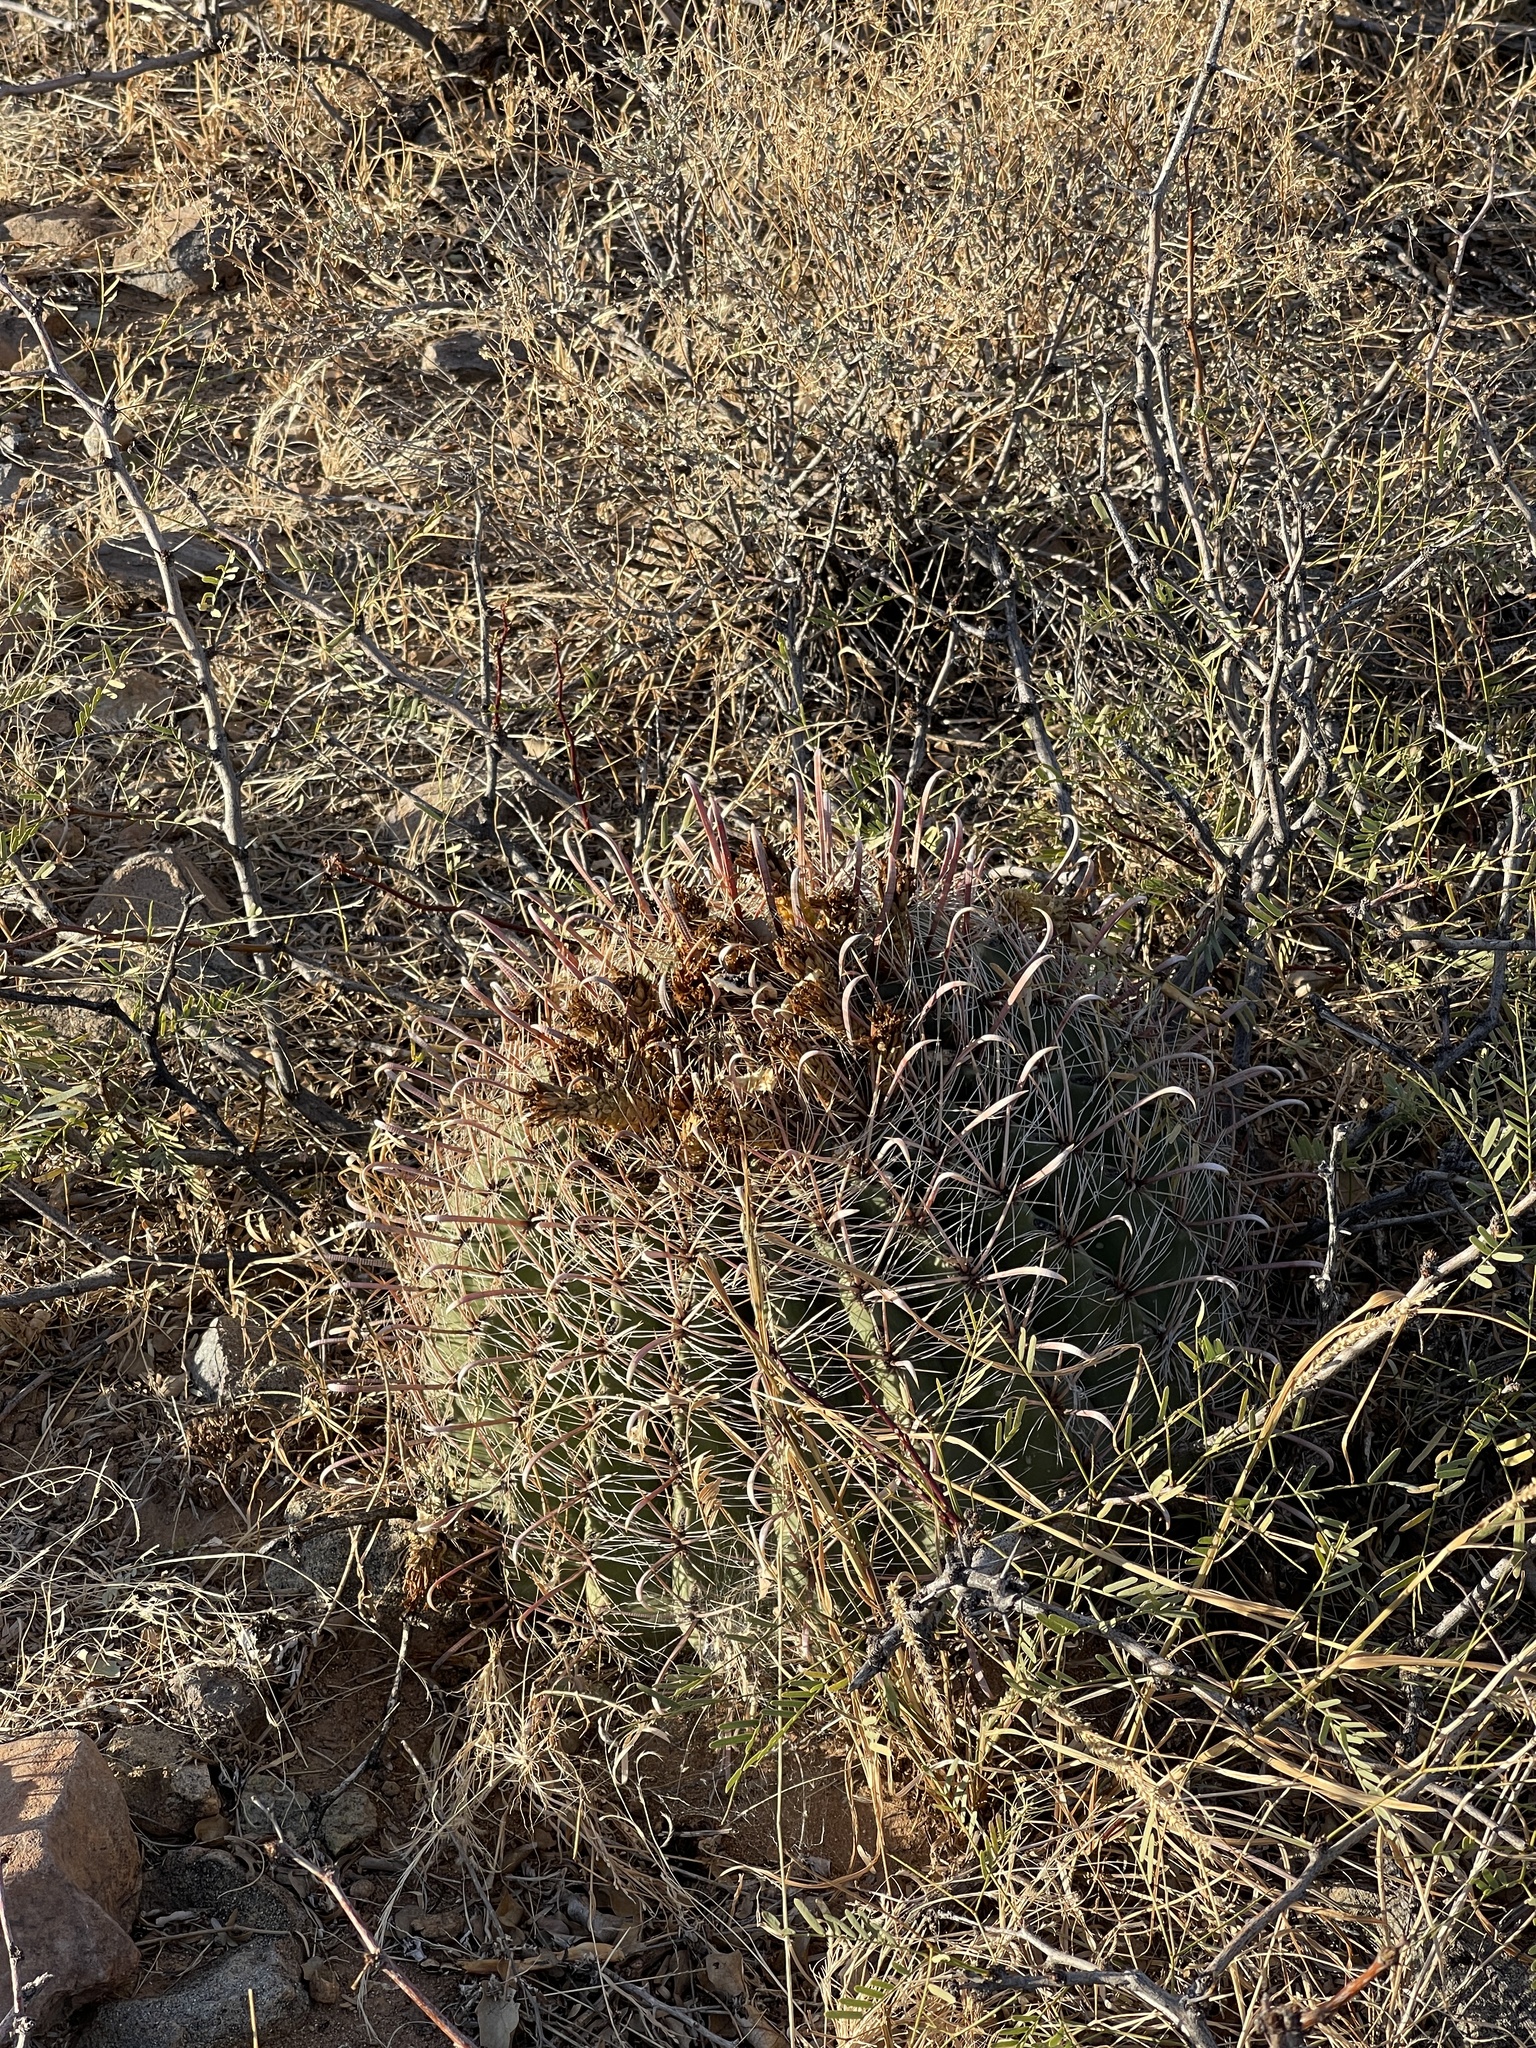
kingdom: Plantae
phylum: Tracheophyta
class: Magnoliopsida
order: Caryophyllales
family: Cactaceae
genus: Ferocactus
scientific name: Ferocactus wislizeni
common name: Candy barrel cactus
